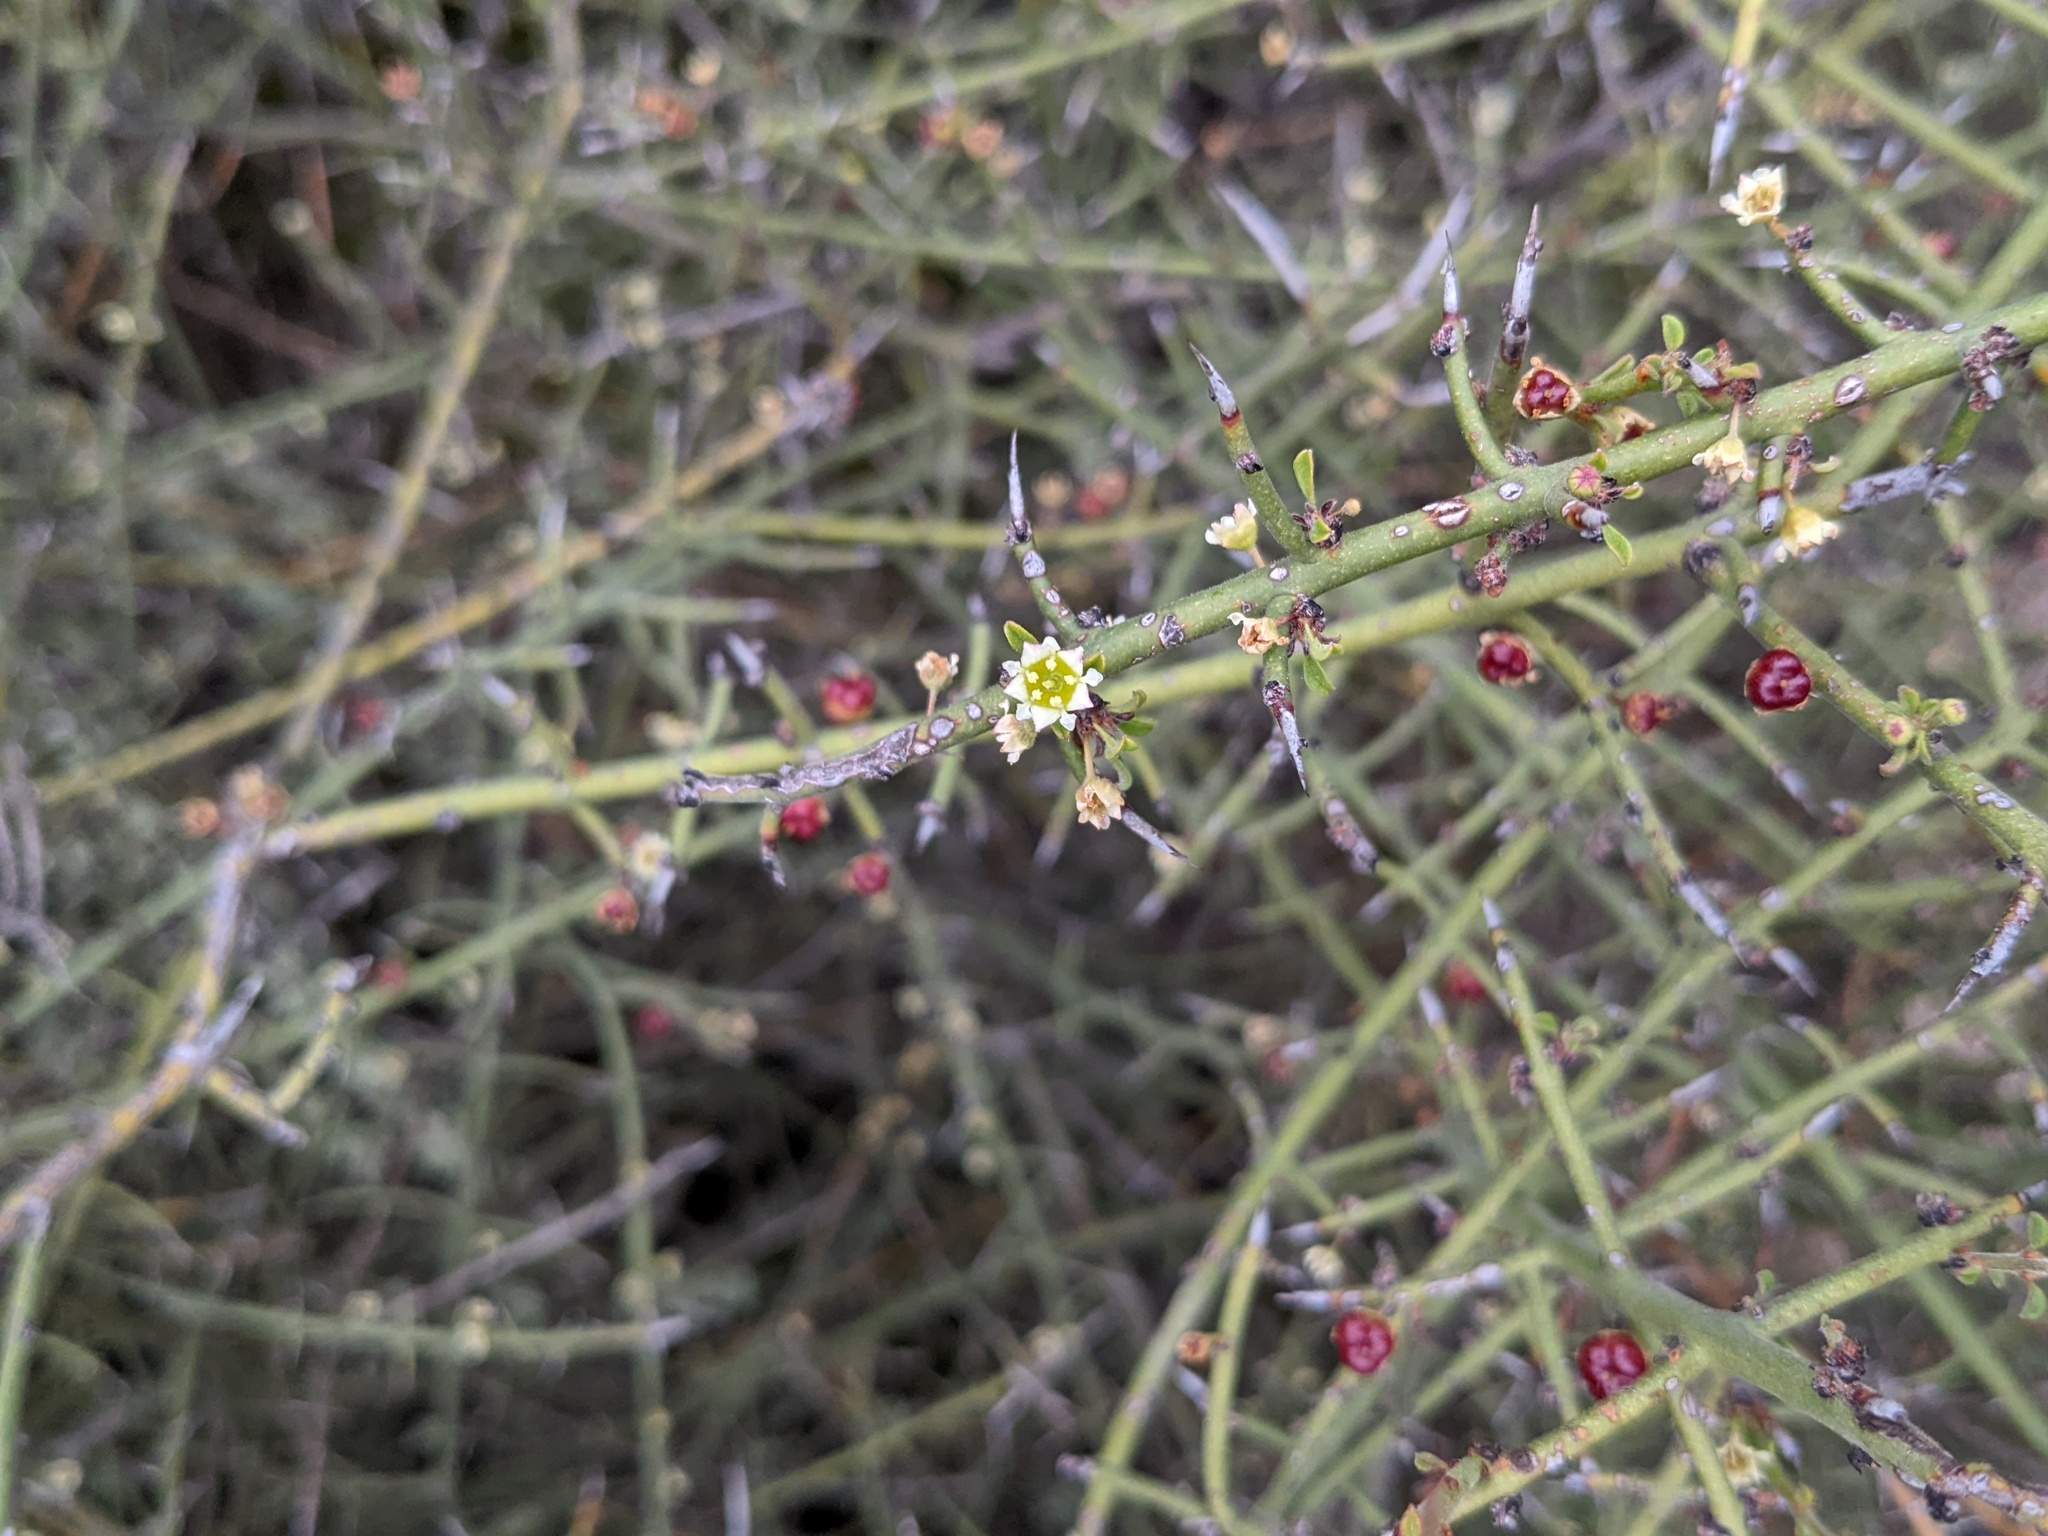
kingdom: Plantae
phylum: Tracheophyta
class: Magnoliopsida
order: Rosales
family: Rhamnaceae
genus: Adolphia
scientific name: Adolphia californica
